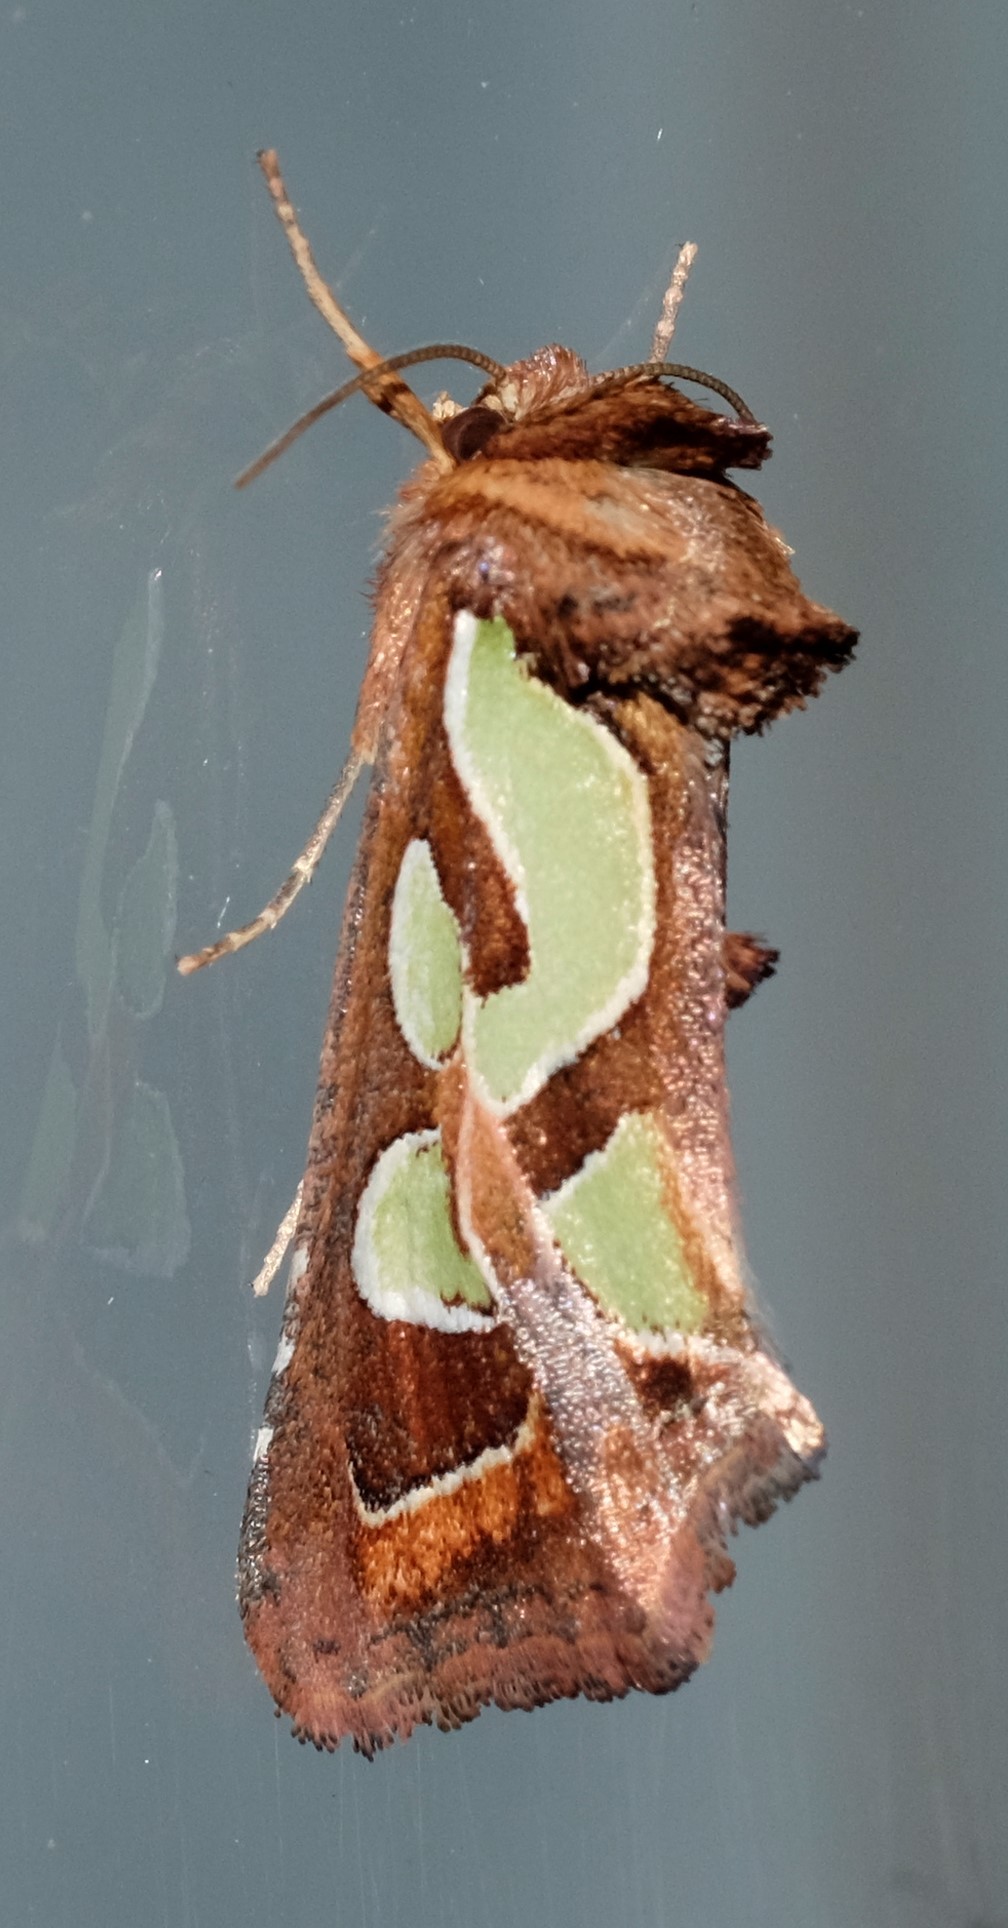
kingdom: Animalia
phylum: Arthropoda
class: Insecta
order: Lepidoptera
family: Noctuidae
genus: Cosmodes
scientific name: Cosmodes elegans
